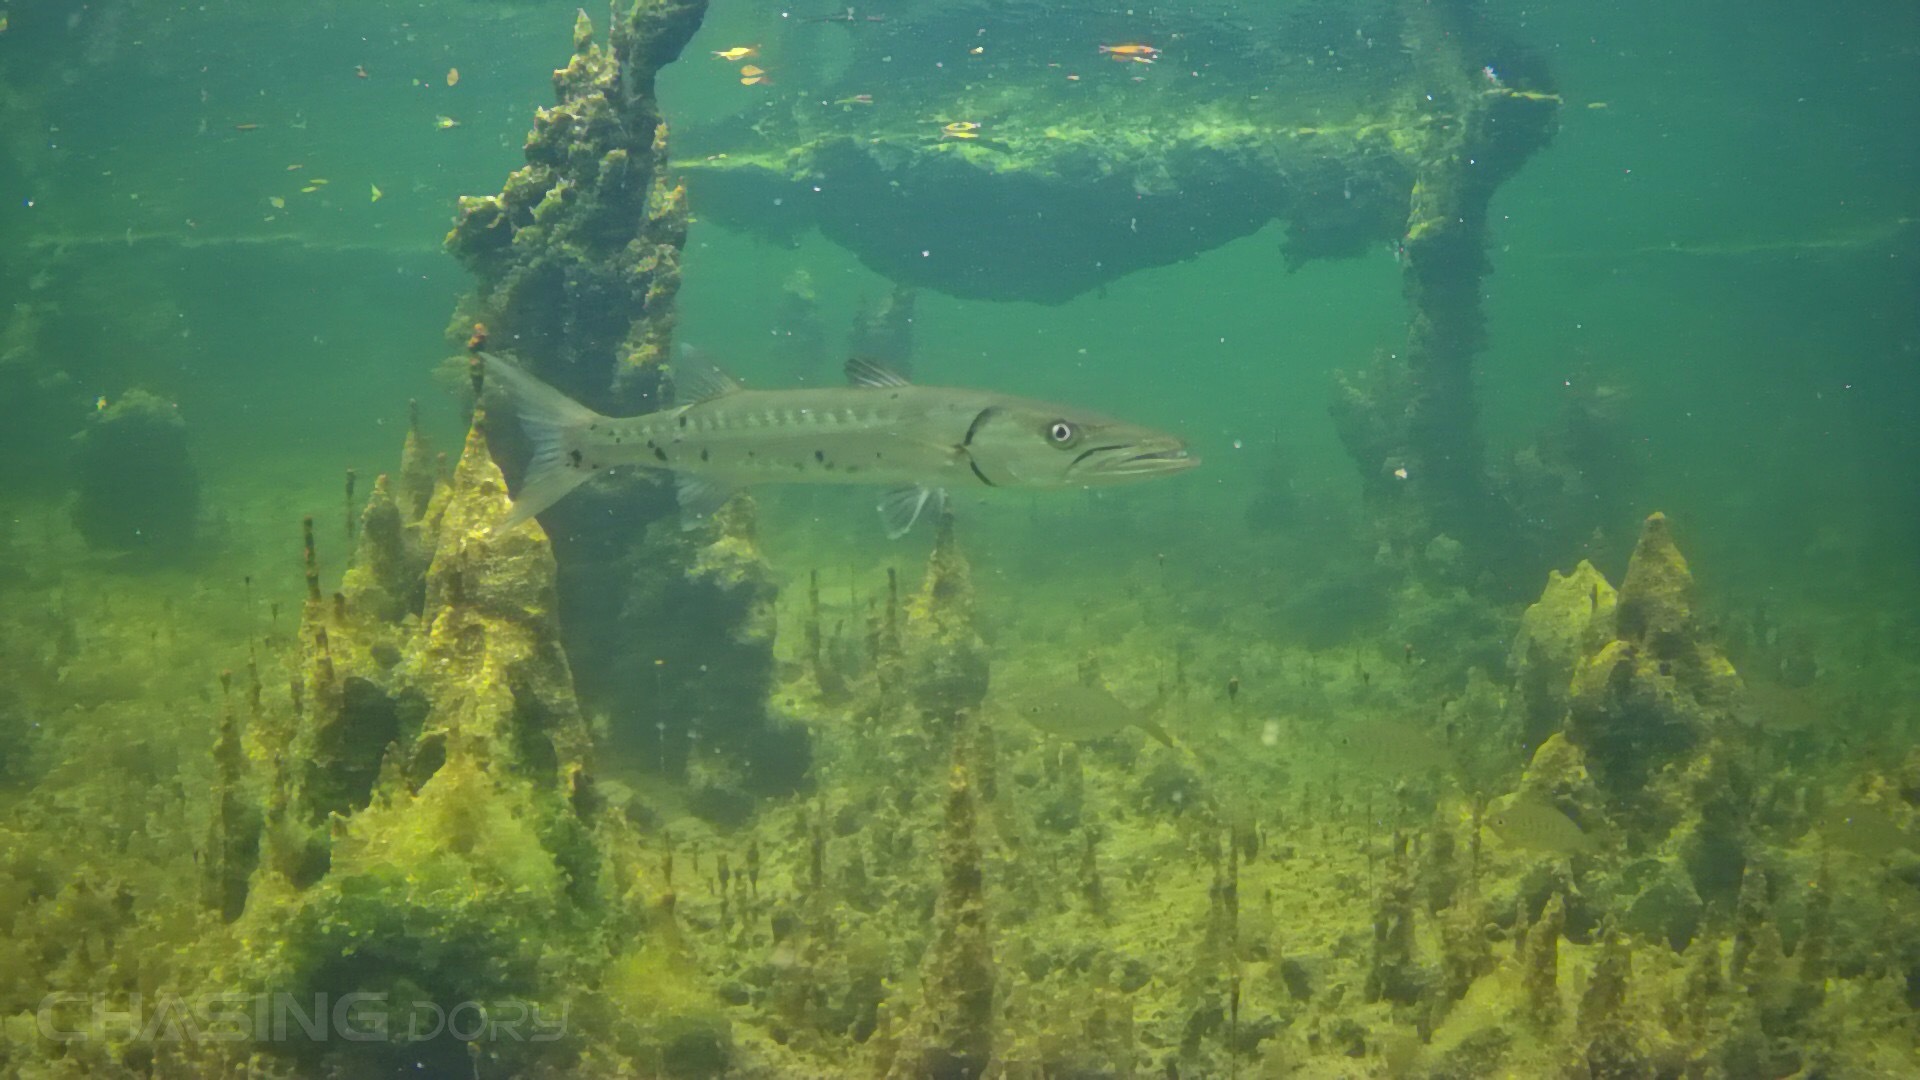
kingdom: Animalia
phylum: Chordata
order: Perciformes
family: Sphyraenidae
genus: Sphyraena
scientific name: Sphyraena barracuda
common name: Great barracuda
